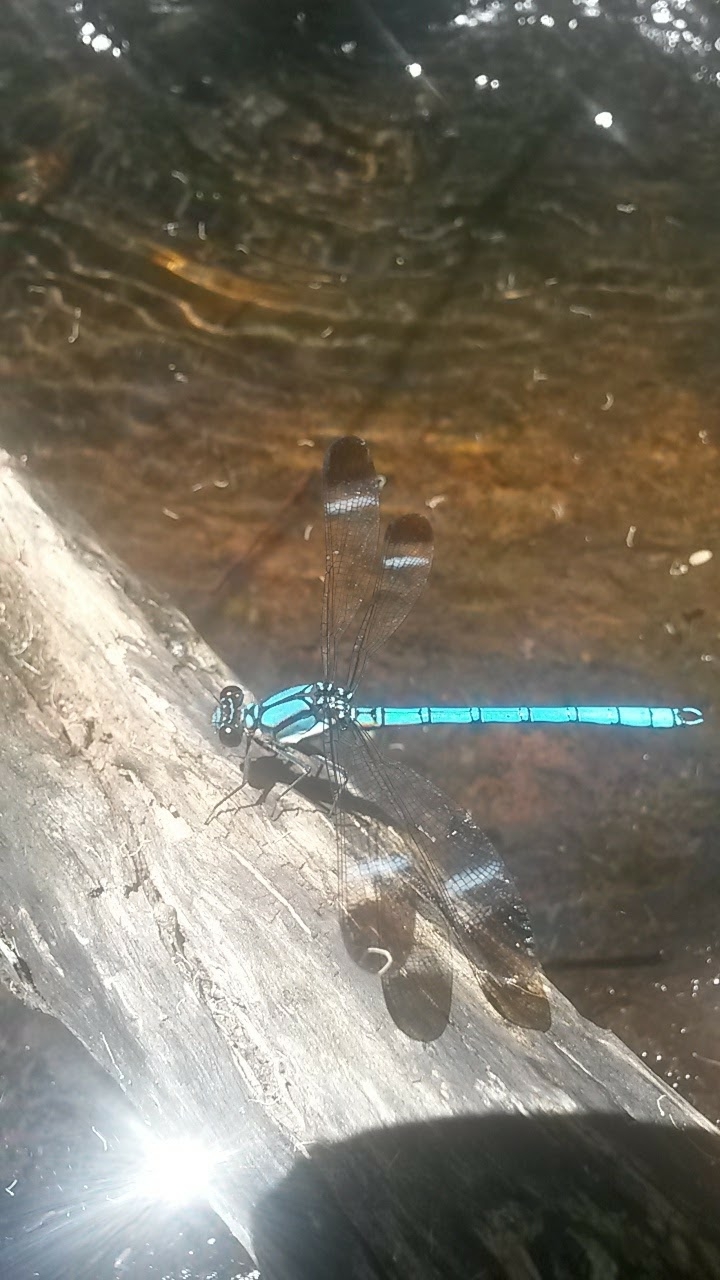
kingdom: Animalia
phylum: Arthropoda
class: Insecta
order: Odonata
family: Lestoideidae
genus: Diphlebia
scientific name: Diphlebia lestoides
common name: Whitewater rockmaster
